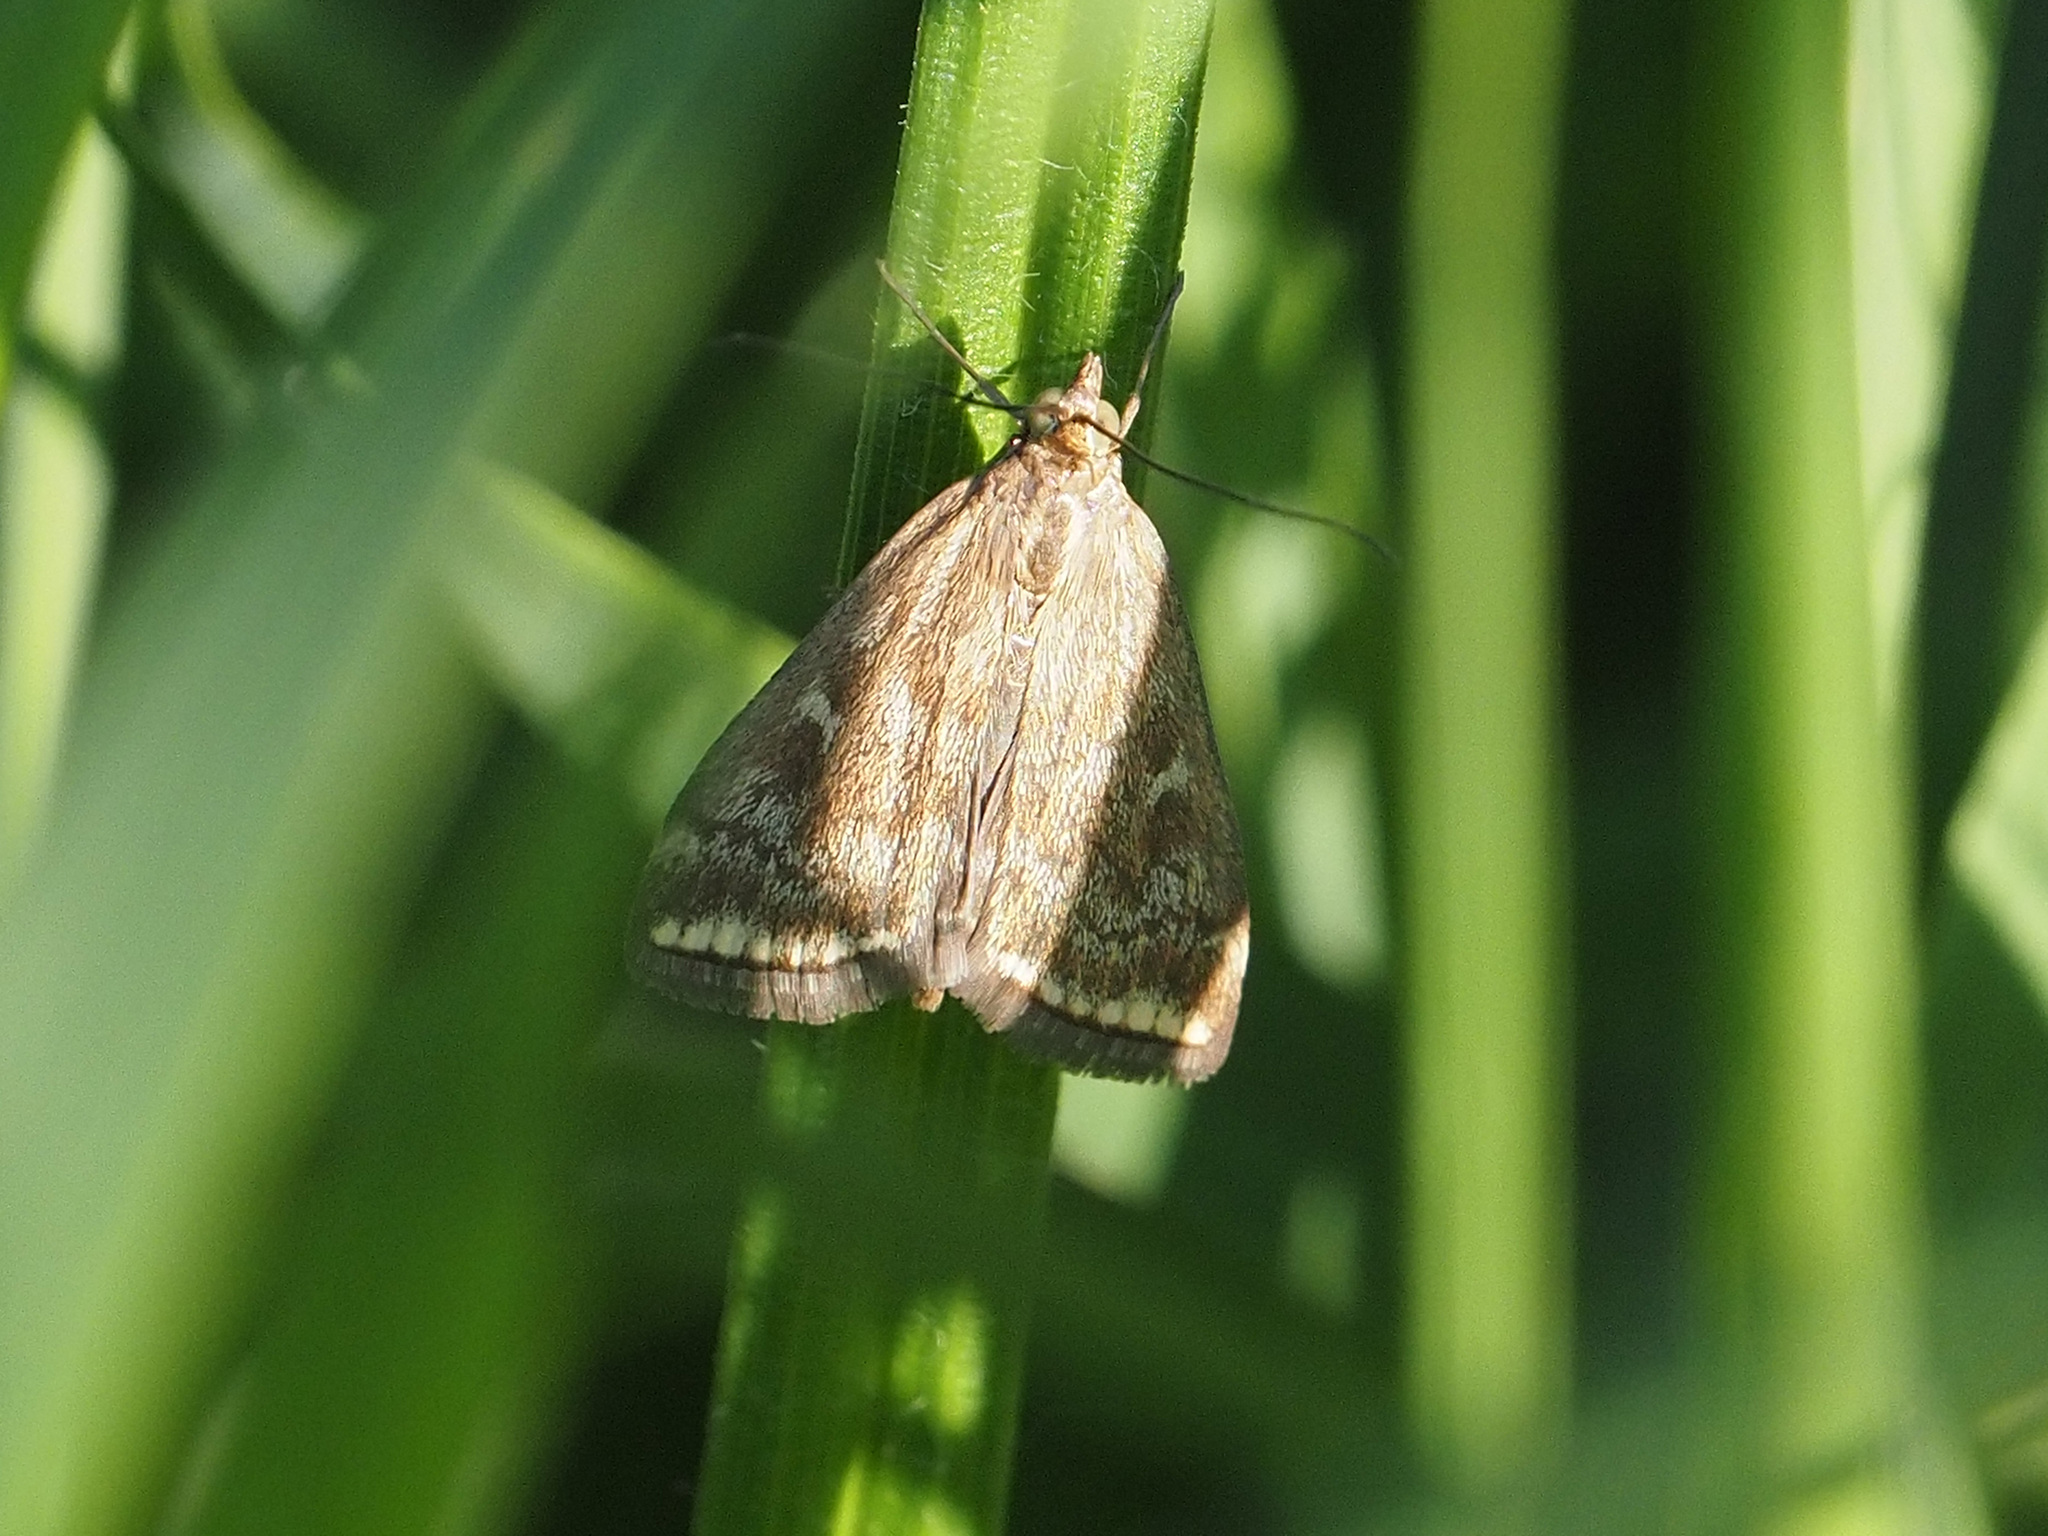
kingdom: Animalia
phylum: Arthropoda
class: Insecta
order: Lepidoptera
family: Crambidae
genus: Loxostege
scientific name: Loxostege sticticalis
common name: Crambid moth
